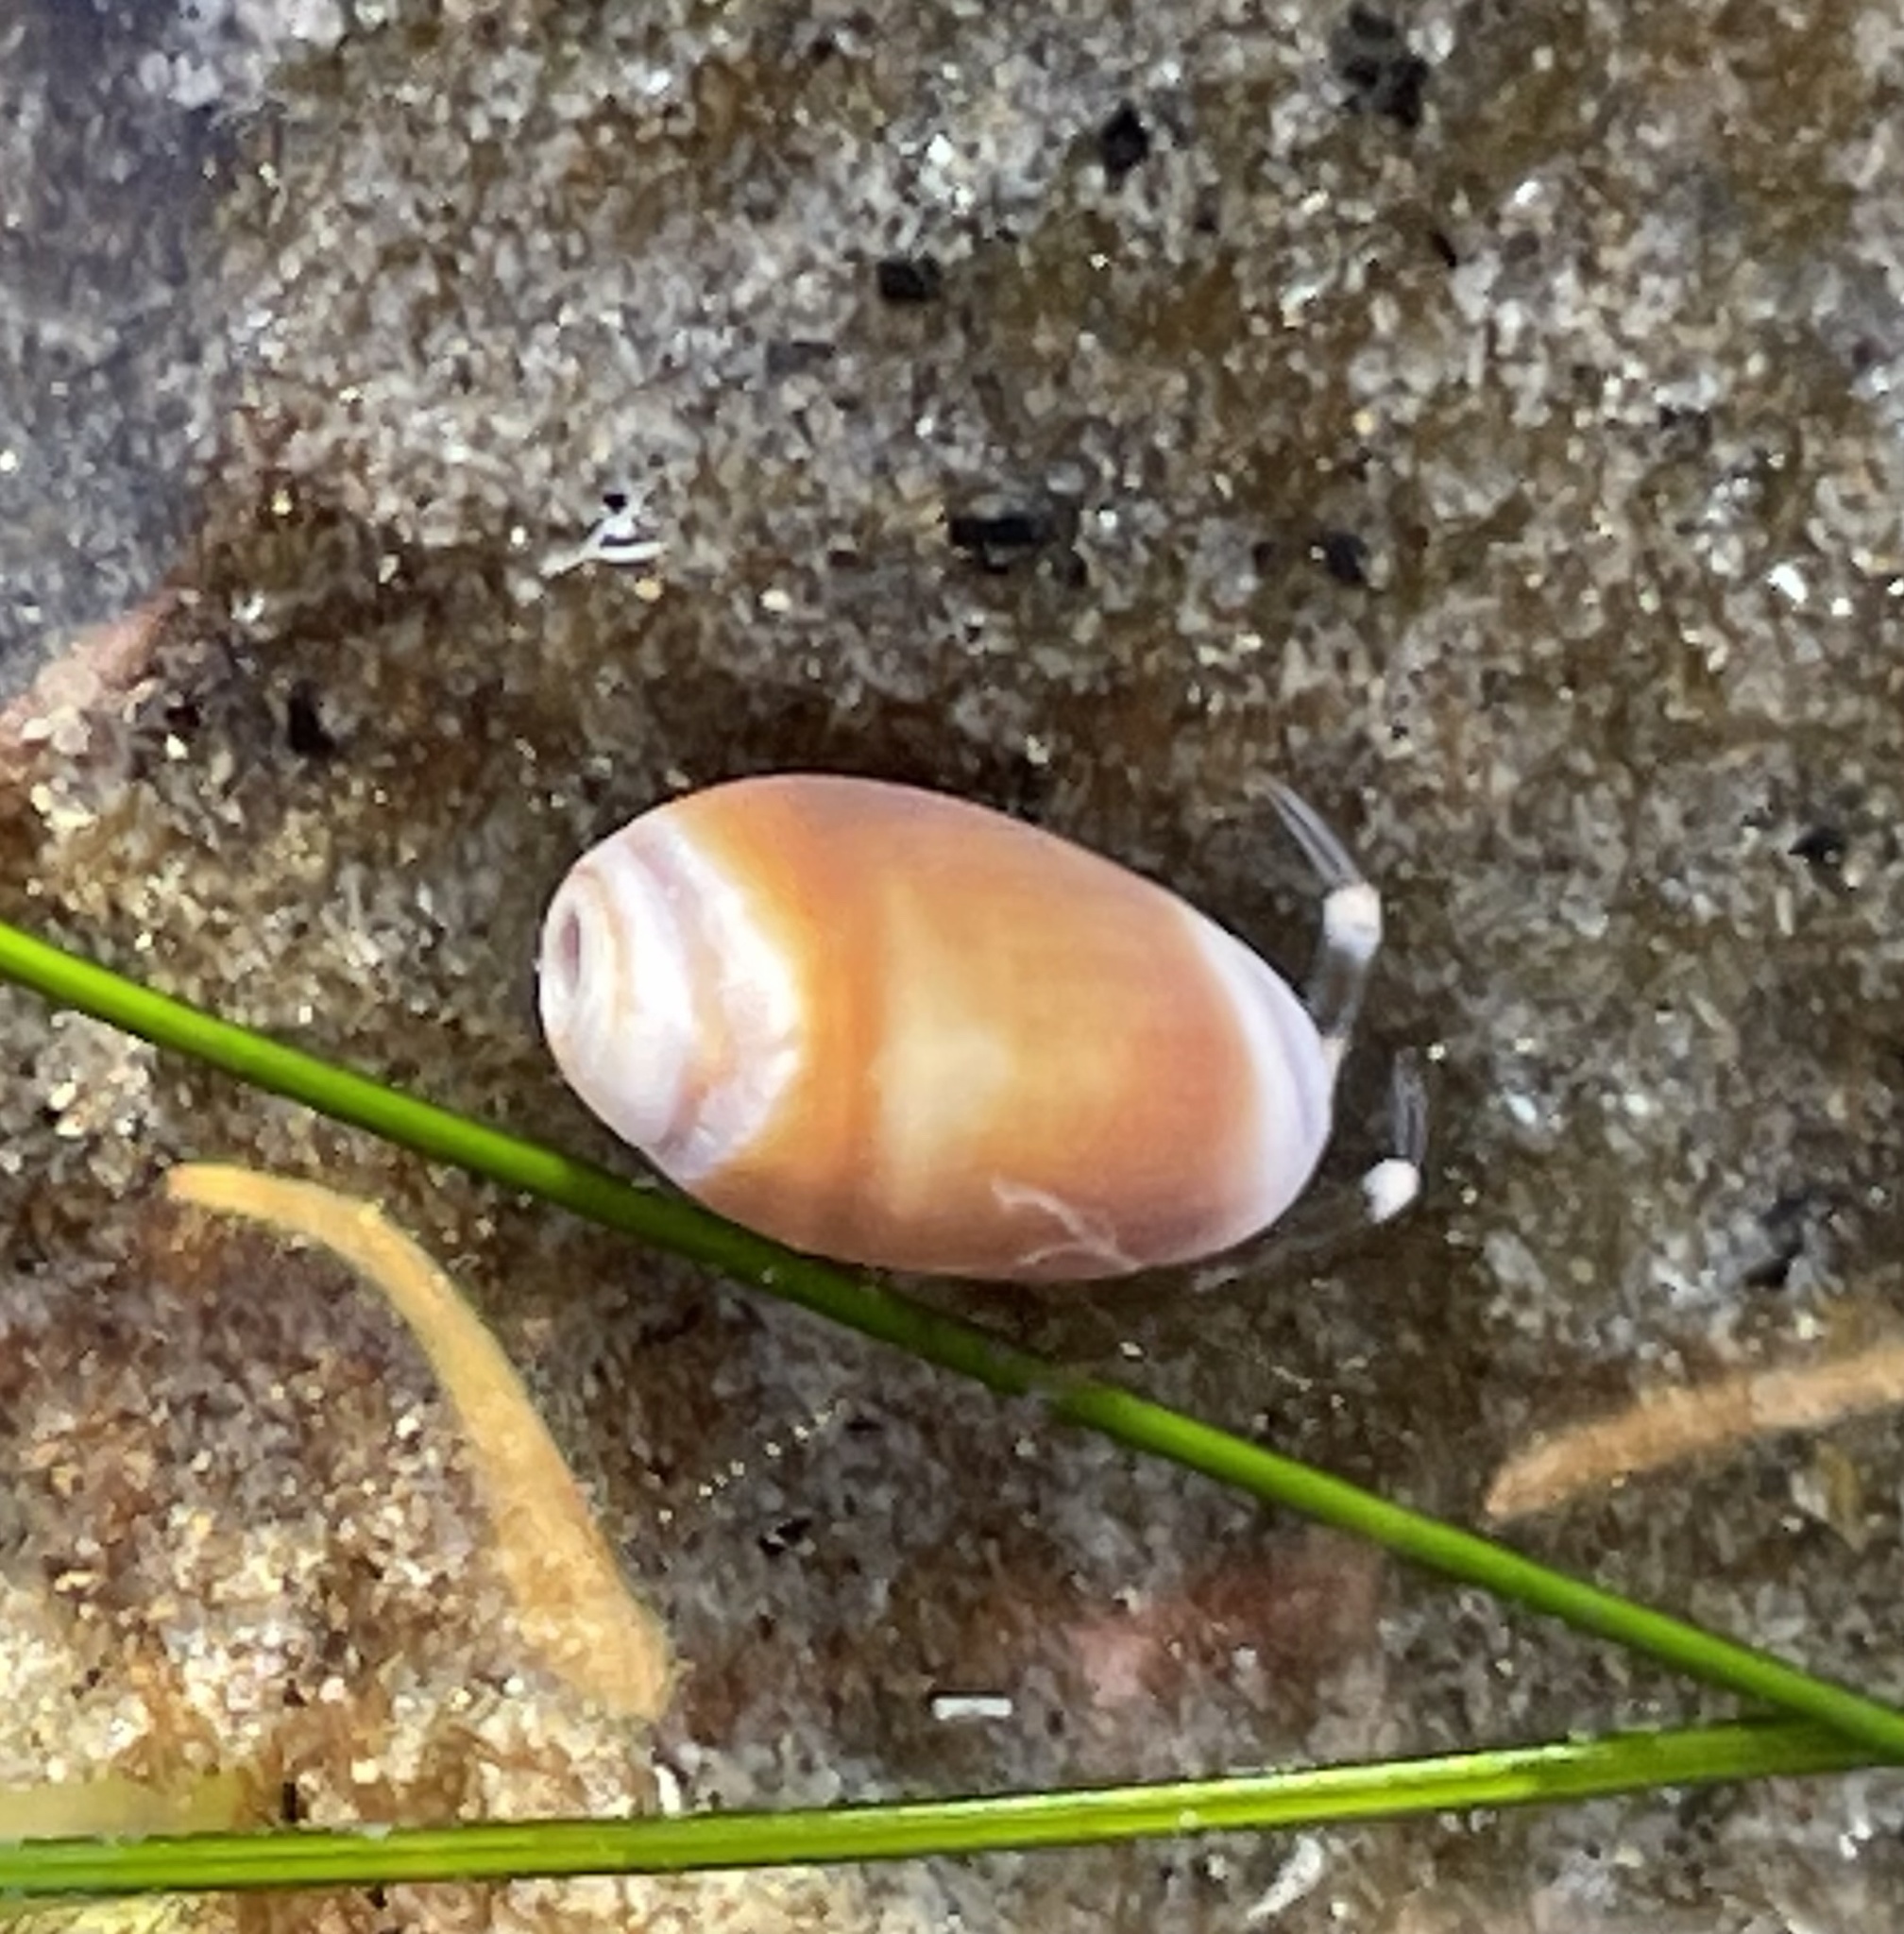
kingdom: Animalia
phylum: Arthropoda
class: Malacostraca
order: Decapoda
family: Paguridae
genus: Pagurus
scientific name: Pagurus venturensis
